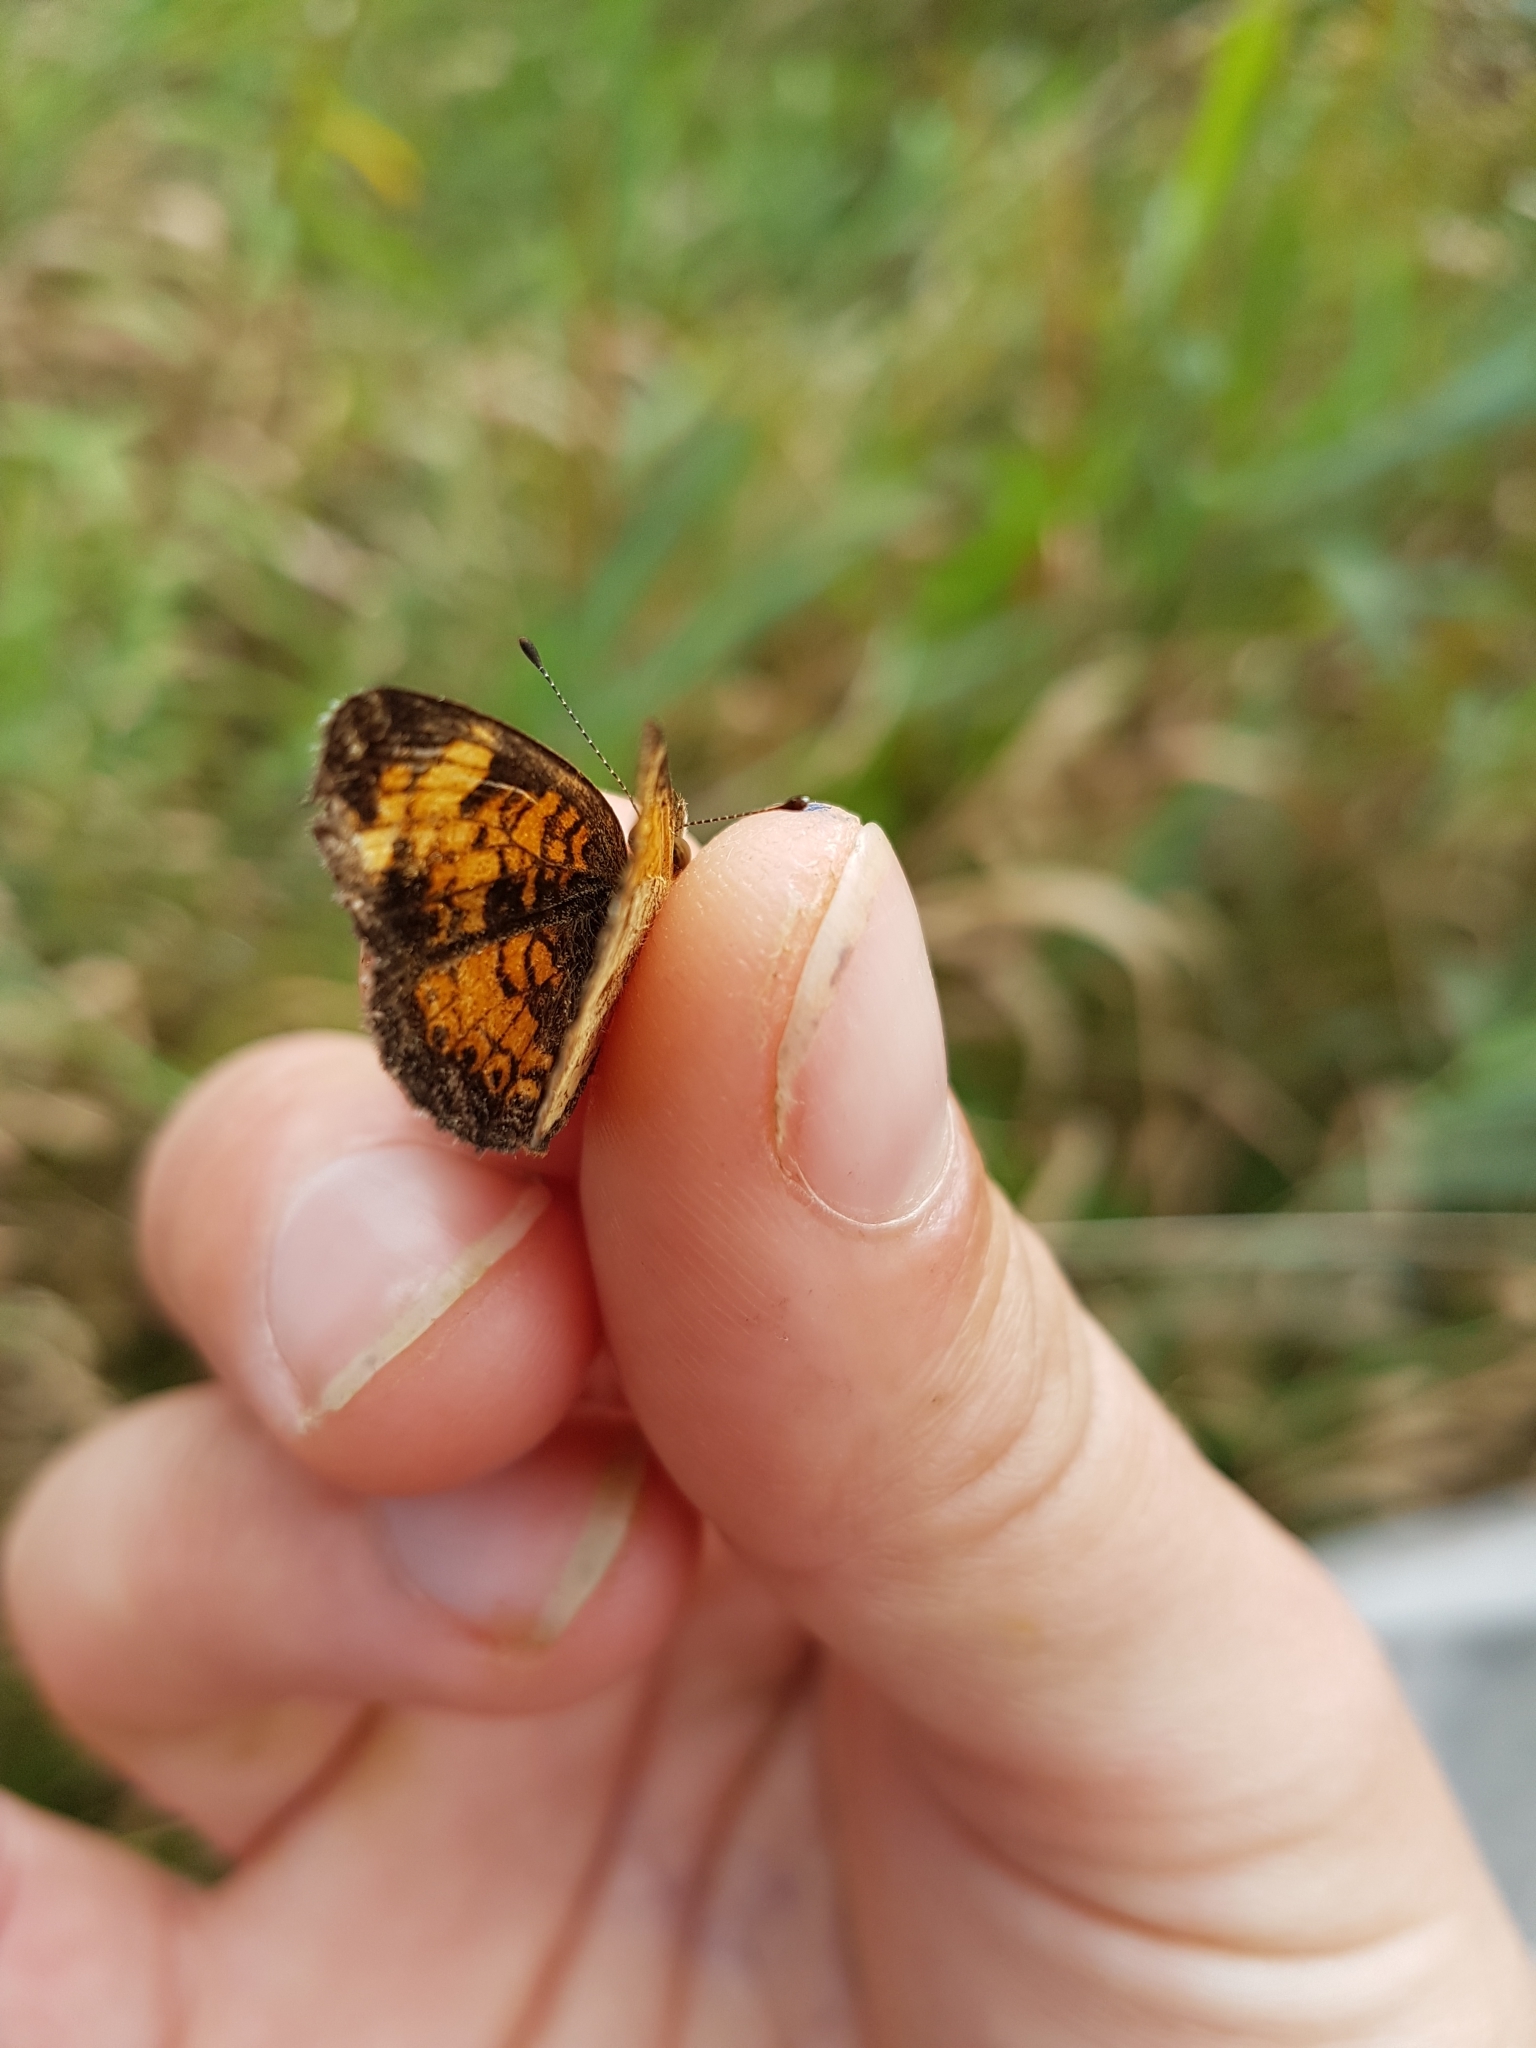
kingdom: Animalia
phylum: Arthropoda
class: Insecta
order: Lepidoptera
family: Nymphalidae
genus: Phyciodes
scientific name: Phyciodes tharos
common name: Pearl crescent
